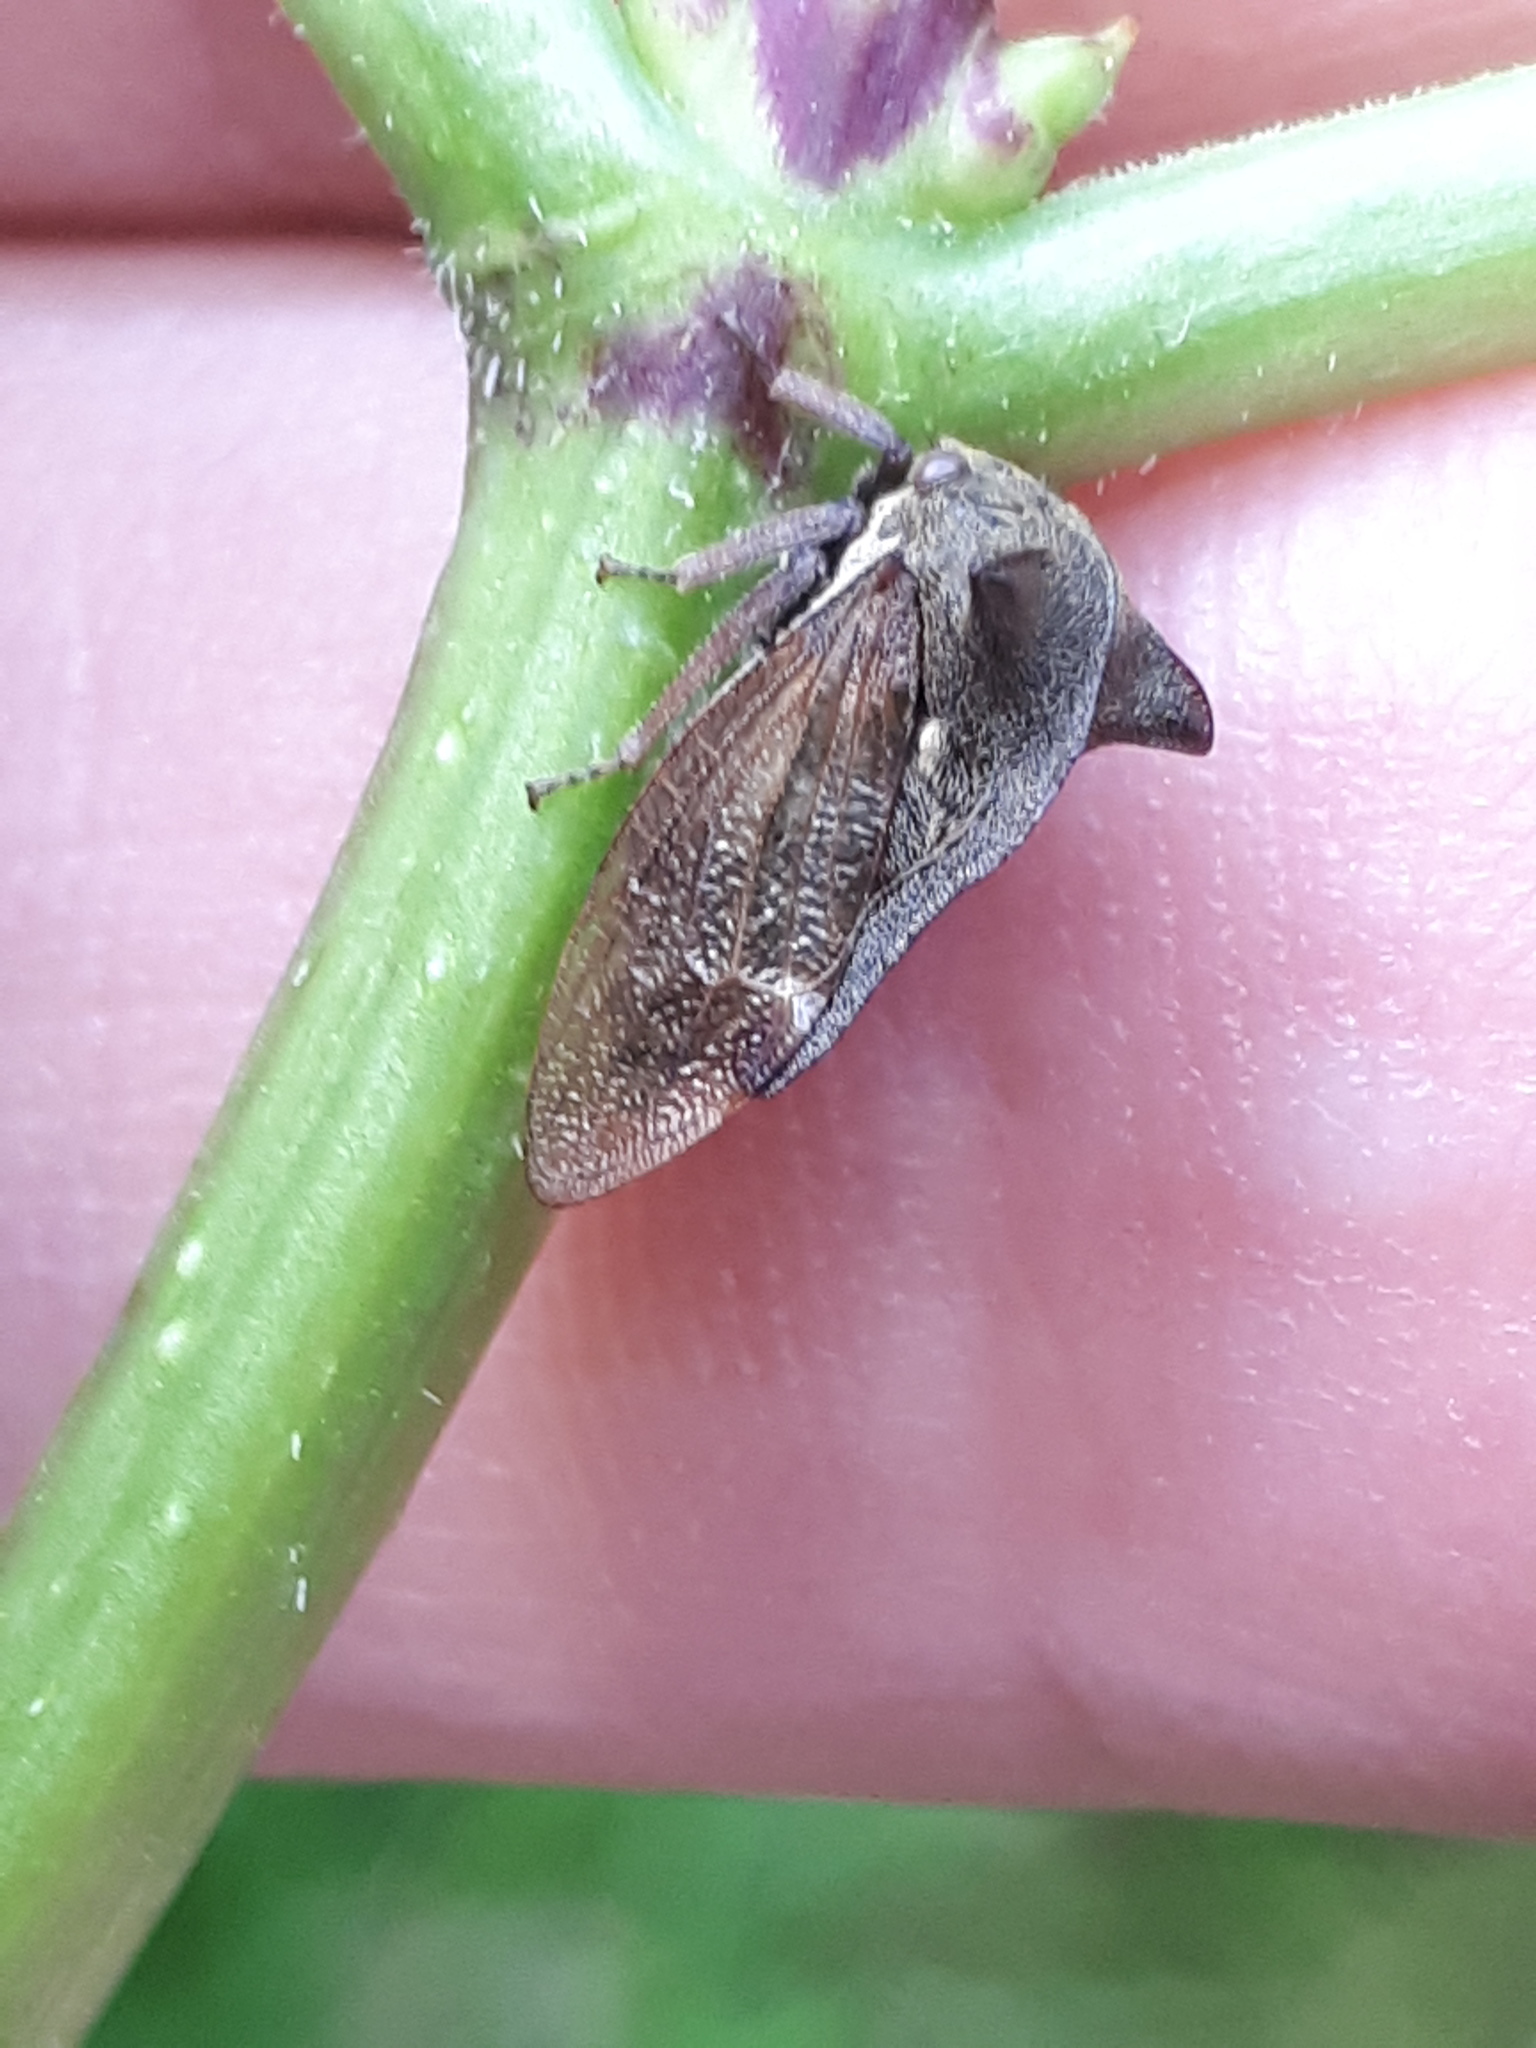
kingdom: Animalia
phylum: Arthropoda
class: Insecta
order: Hemiptera
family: Membracidae
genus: Centrotus
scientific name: Centrotus cornuta
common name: Treehopper
